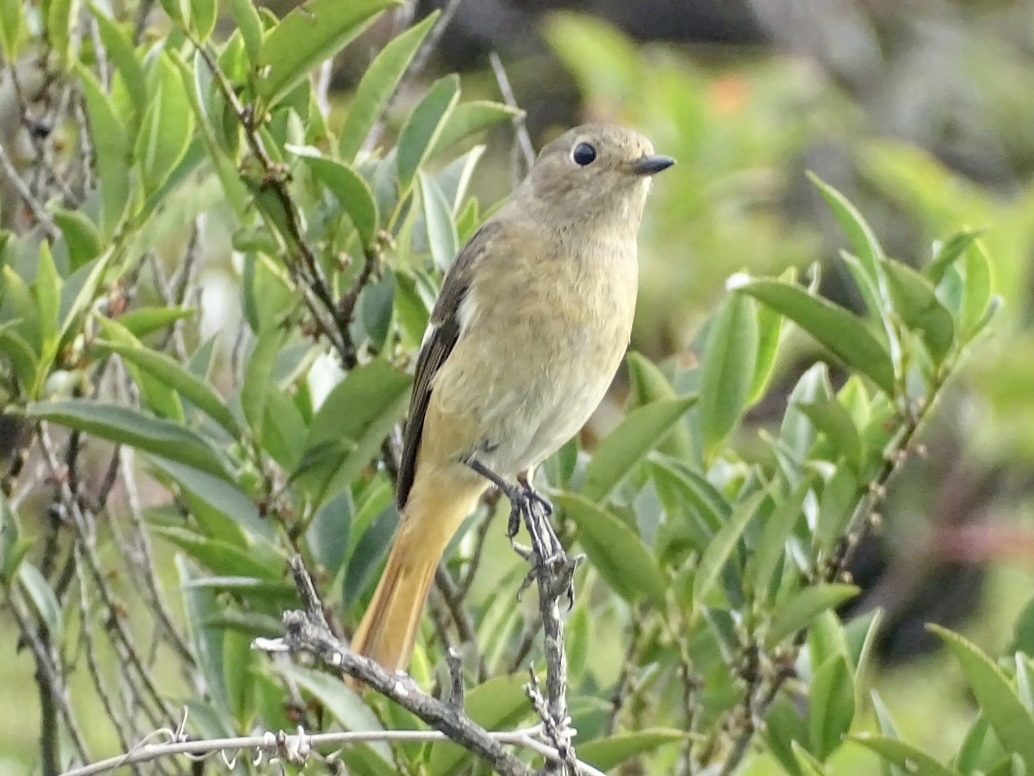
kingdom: Animalia
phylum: Chordata
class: Aves
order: Passeriformes
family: Muscicapidae
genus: Phoenicurus
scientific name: Phoenicurus auroreus
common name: Daurian redstart
